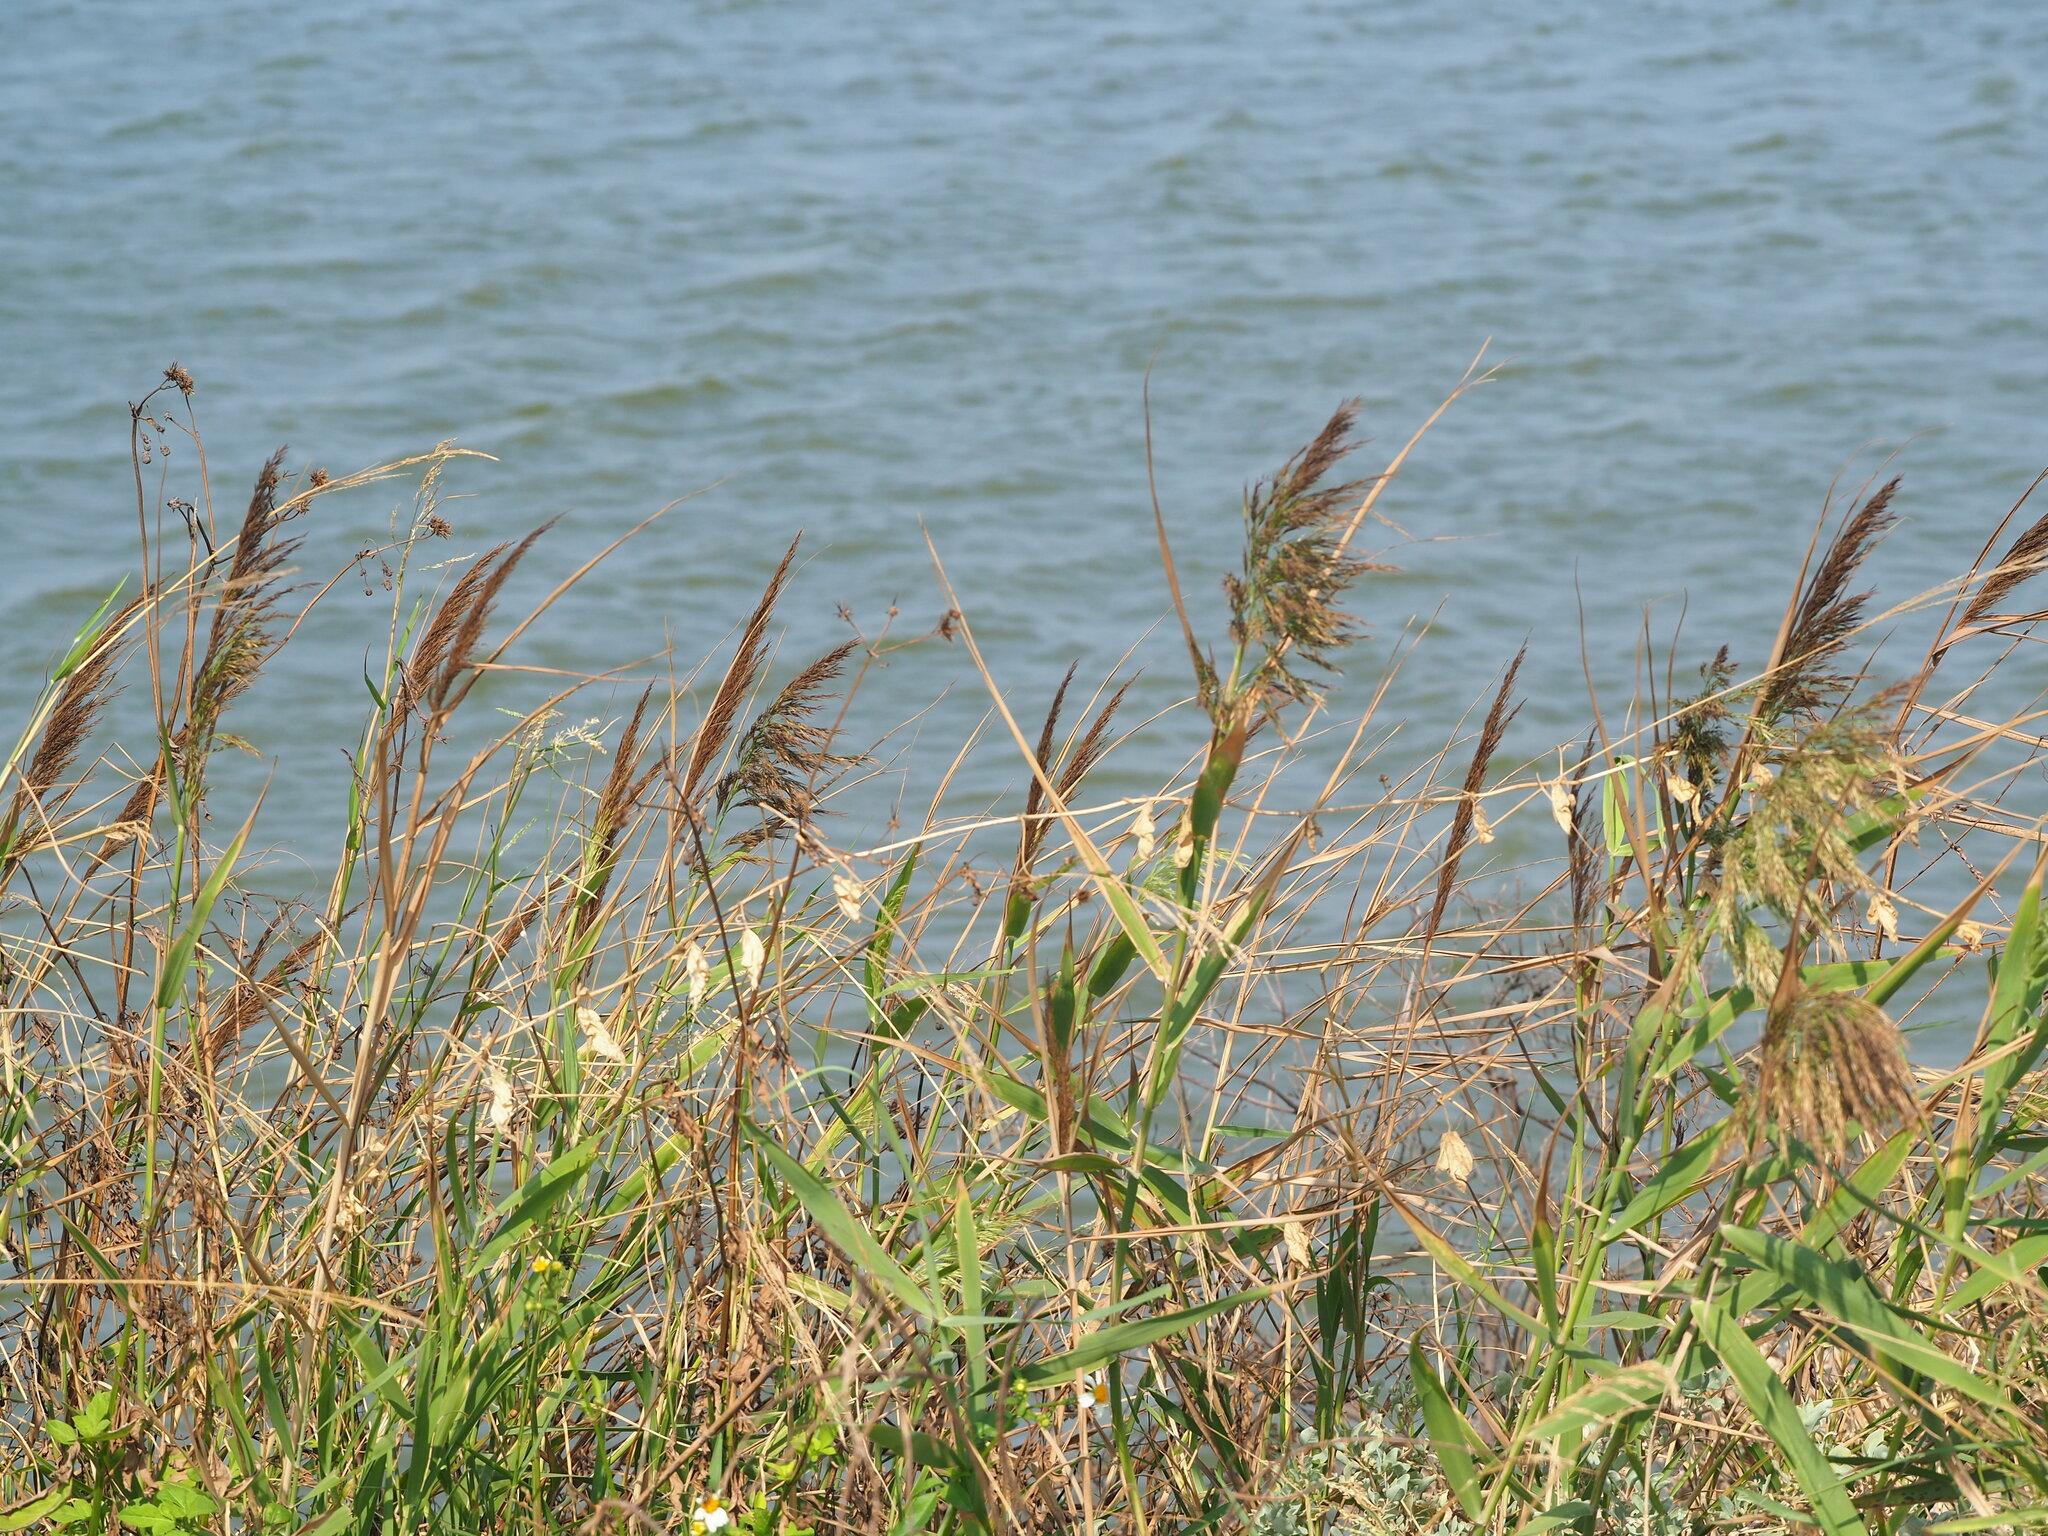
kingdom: Plantae
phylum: Tracheophyta
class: Liliopsida
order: Poales
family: Poaceae
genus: Phragmites
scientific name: Phragmites australis
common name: Common reed
